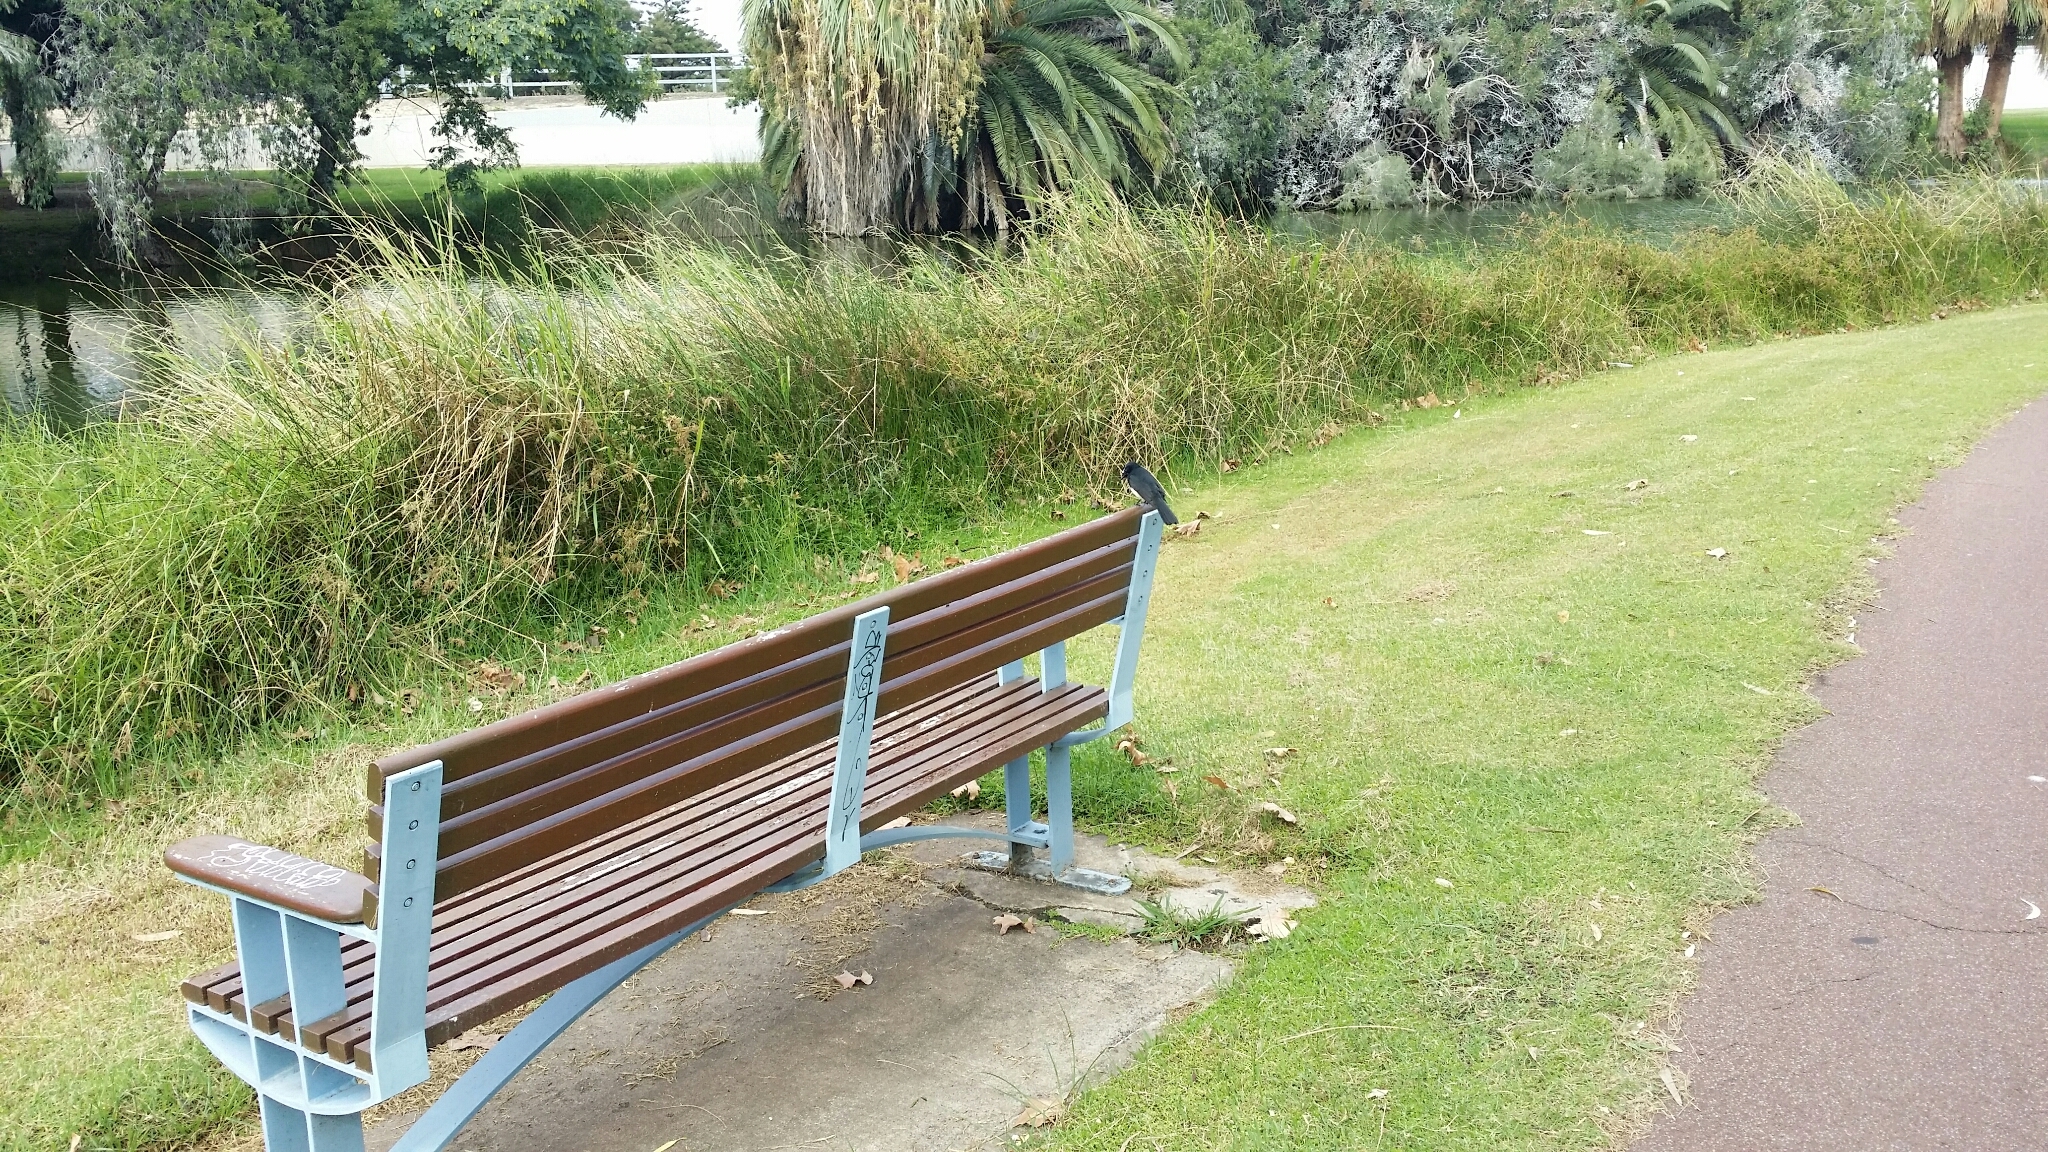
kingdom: Animalia
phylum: Chordata
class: Aves
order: Passeriformes
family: Rhipiduridae
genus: Rhipidura
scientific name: Rhipidura leucophrys
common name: Willie wagtail
